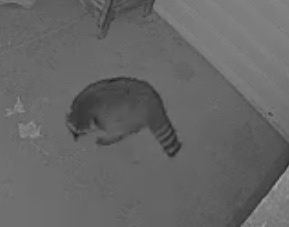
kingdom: Animalia
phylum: Chordata
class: Mammalia
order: Carnivora
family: Procyonidae
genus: Procyon
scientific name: Procyon lotor
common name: Raccoon
